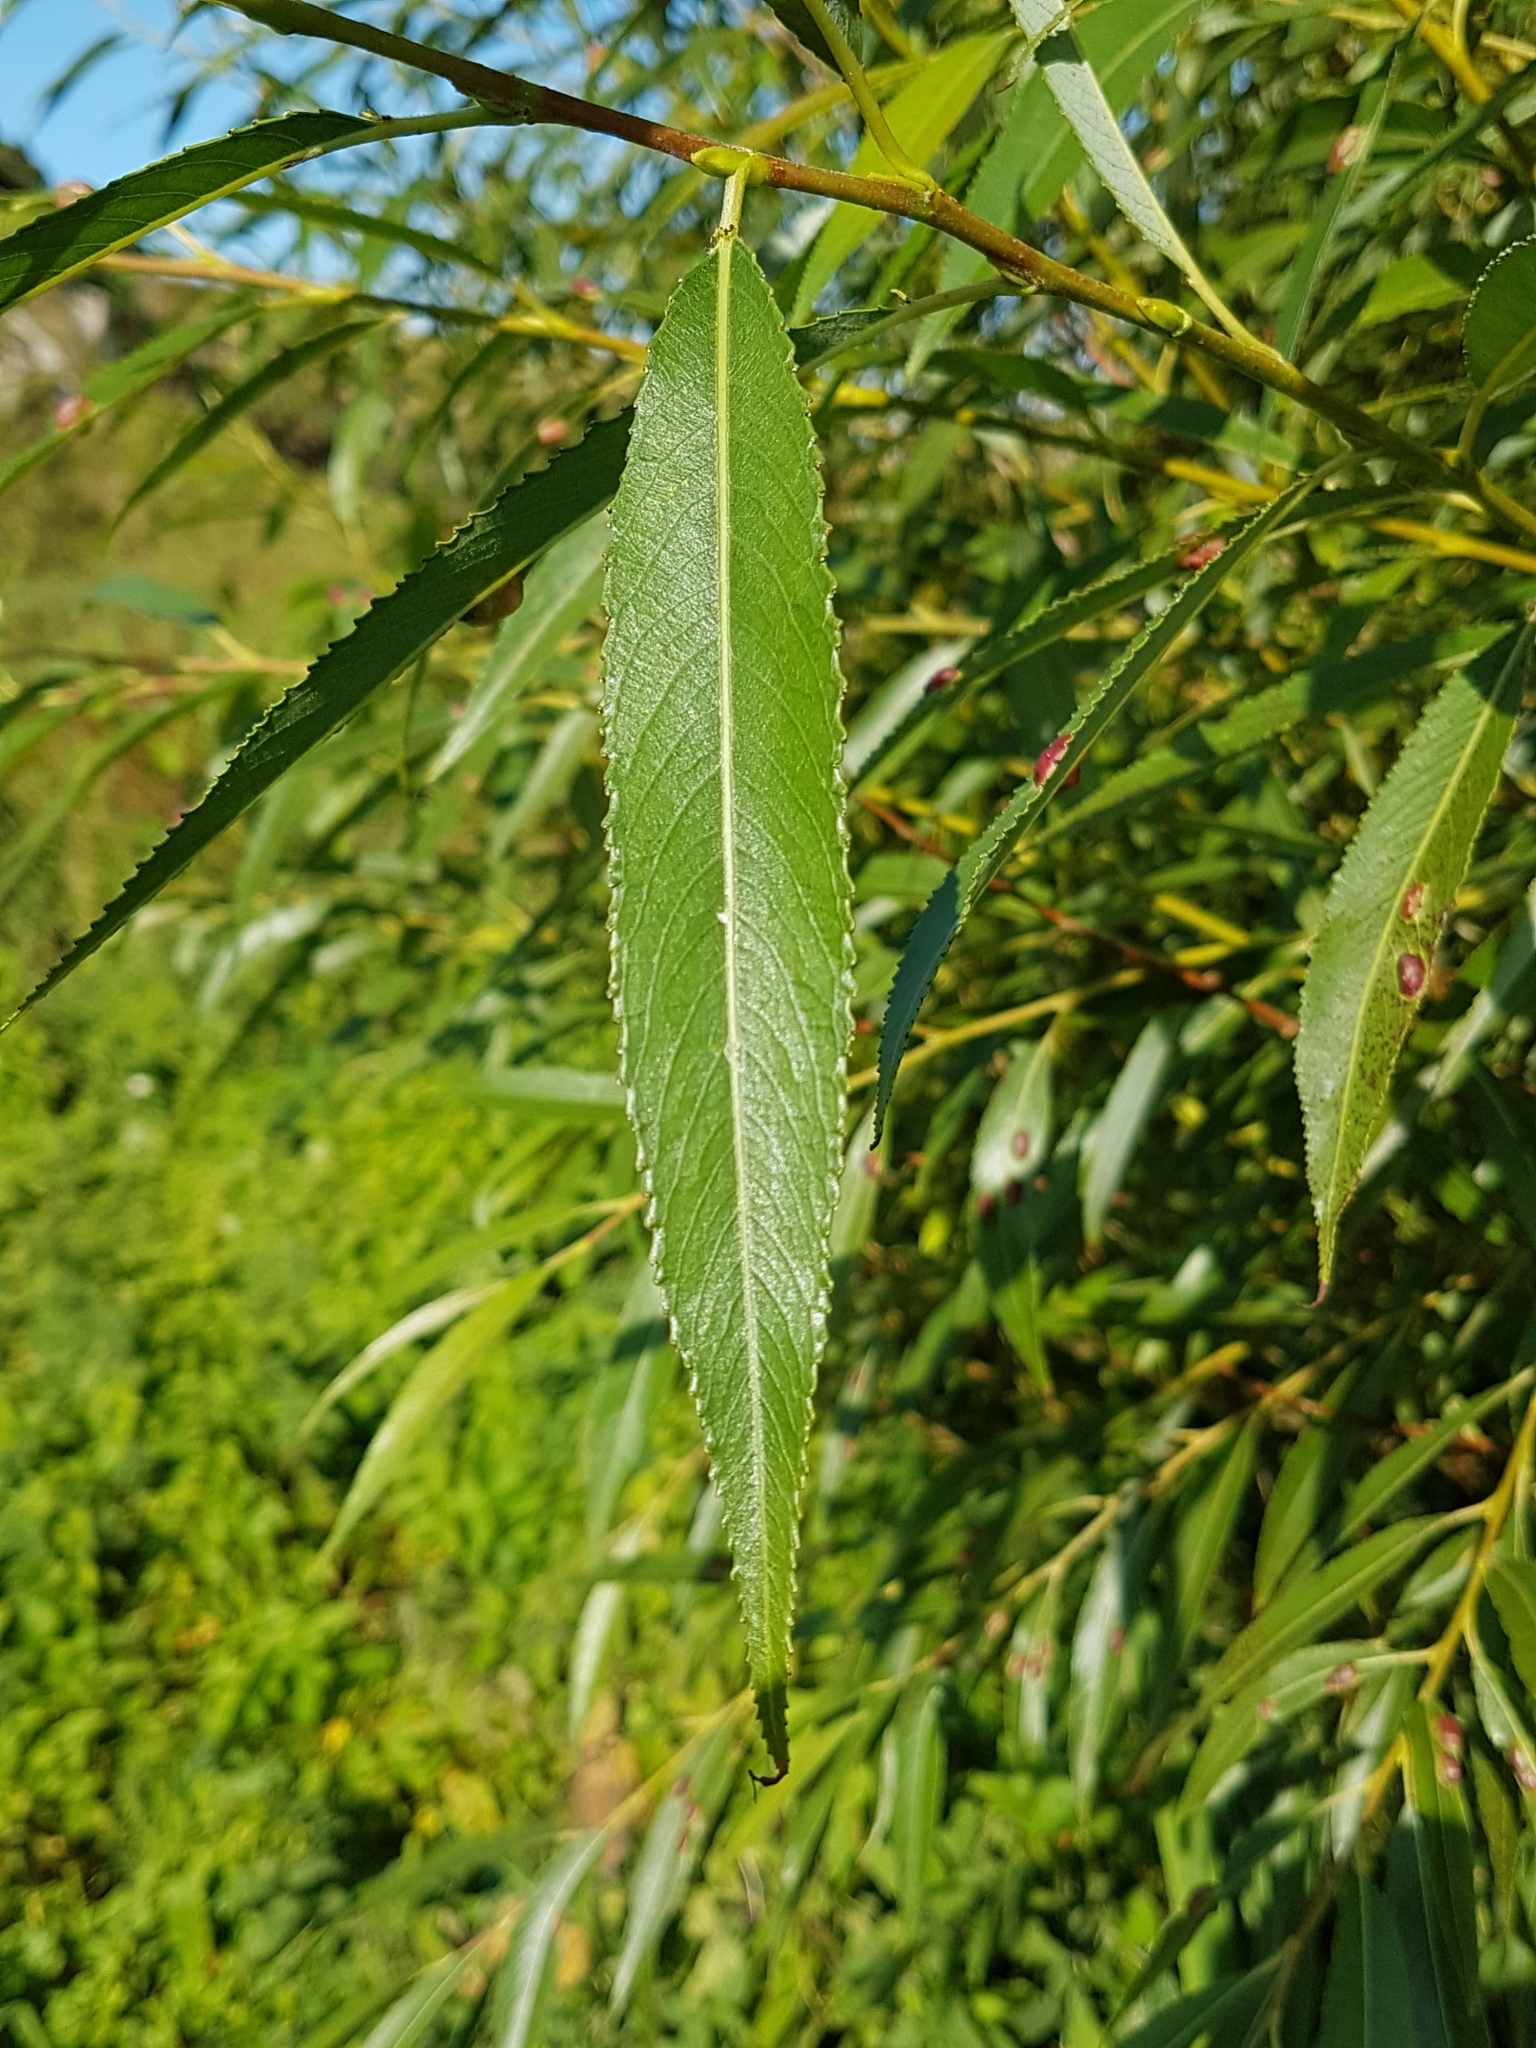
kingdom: Animalia
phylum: Arthropoda
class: Insecta
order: Hymenoptera
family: Tenthredinidae
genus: Pontania
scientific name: Pontania proxima
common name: Common sawfly
